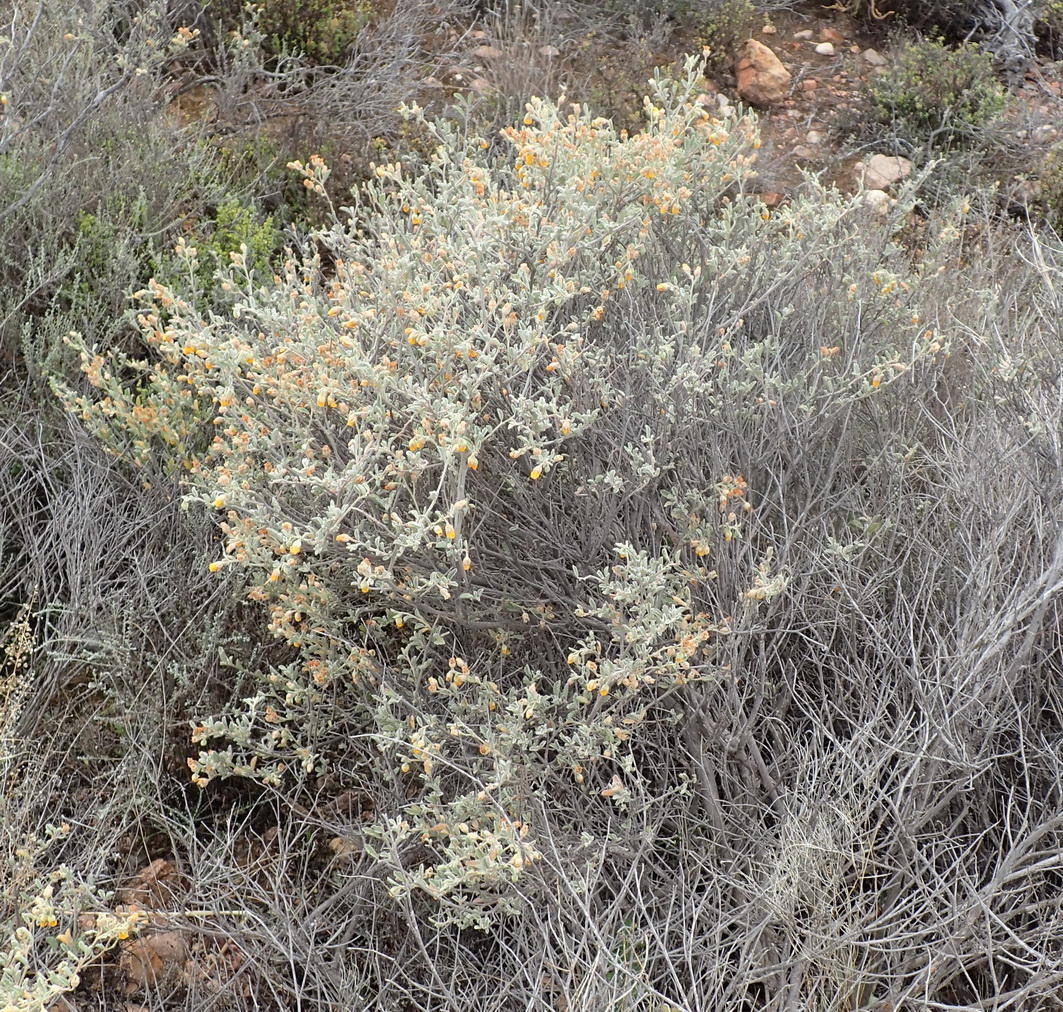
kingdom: Plantae
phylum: Tracheophyta
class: Magnoliopsida
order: Malvales
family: Malvaceae
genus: Hermannia
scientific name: Hermannia incana
